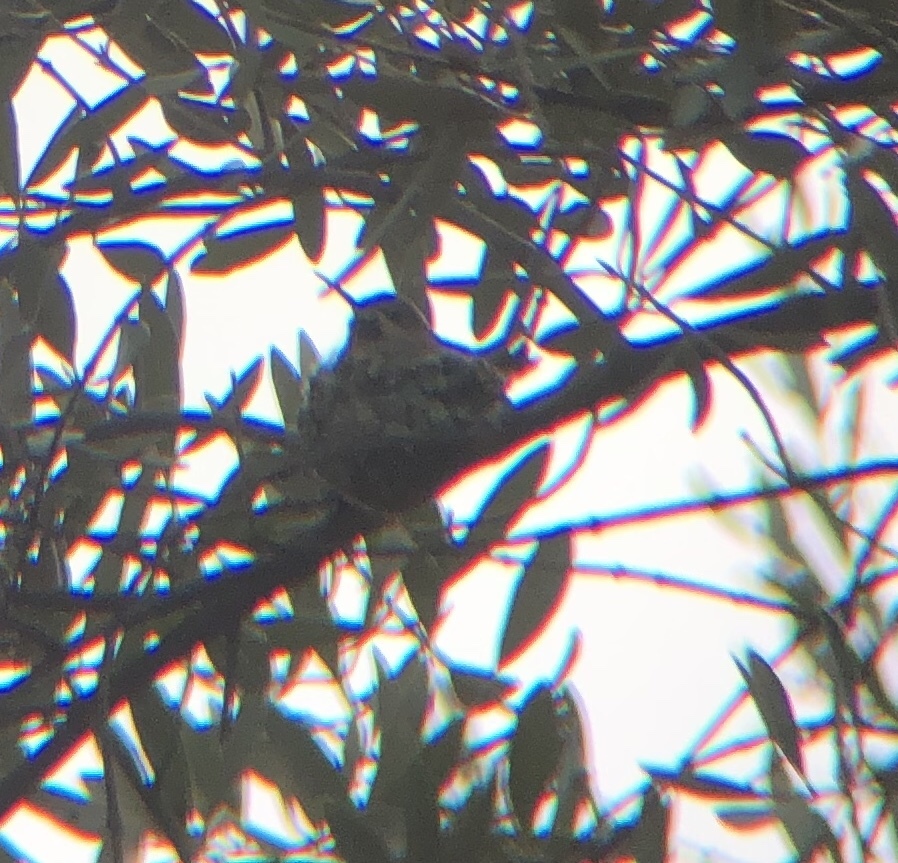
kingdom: Animalia
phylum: Chordata
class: Aves
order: Apodiformes
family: Trochilidae
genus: Calypte
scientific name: Calypte anna
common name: Anna's hummingbird
